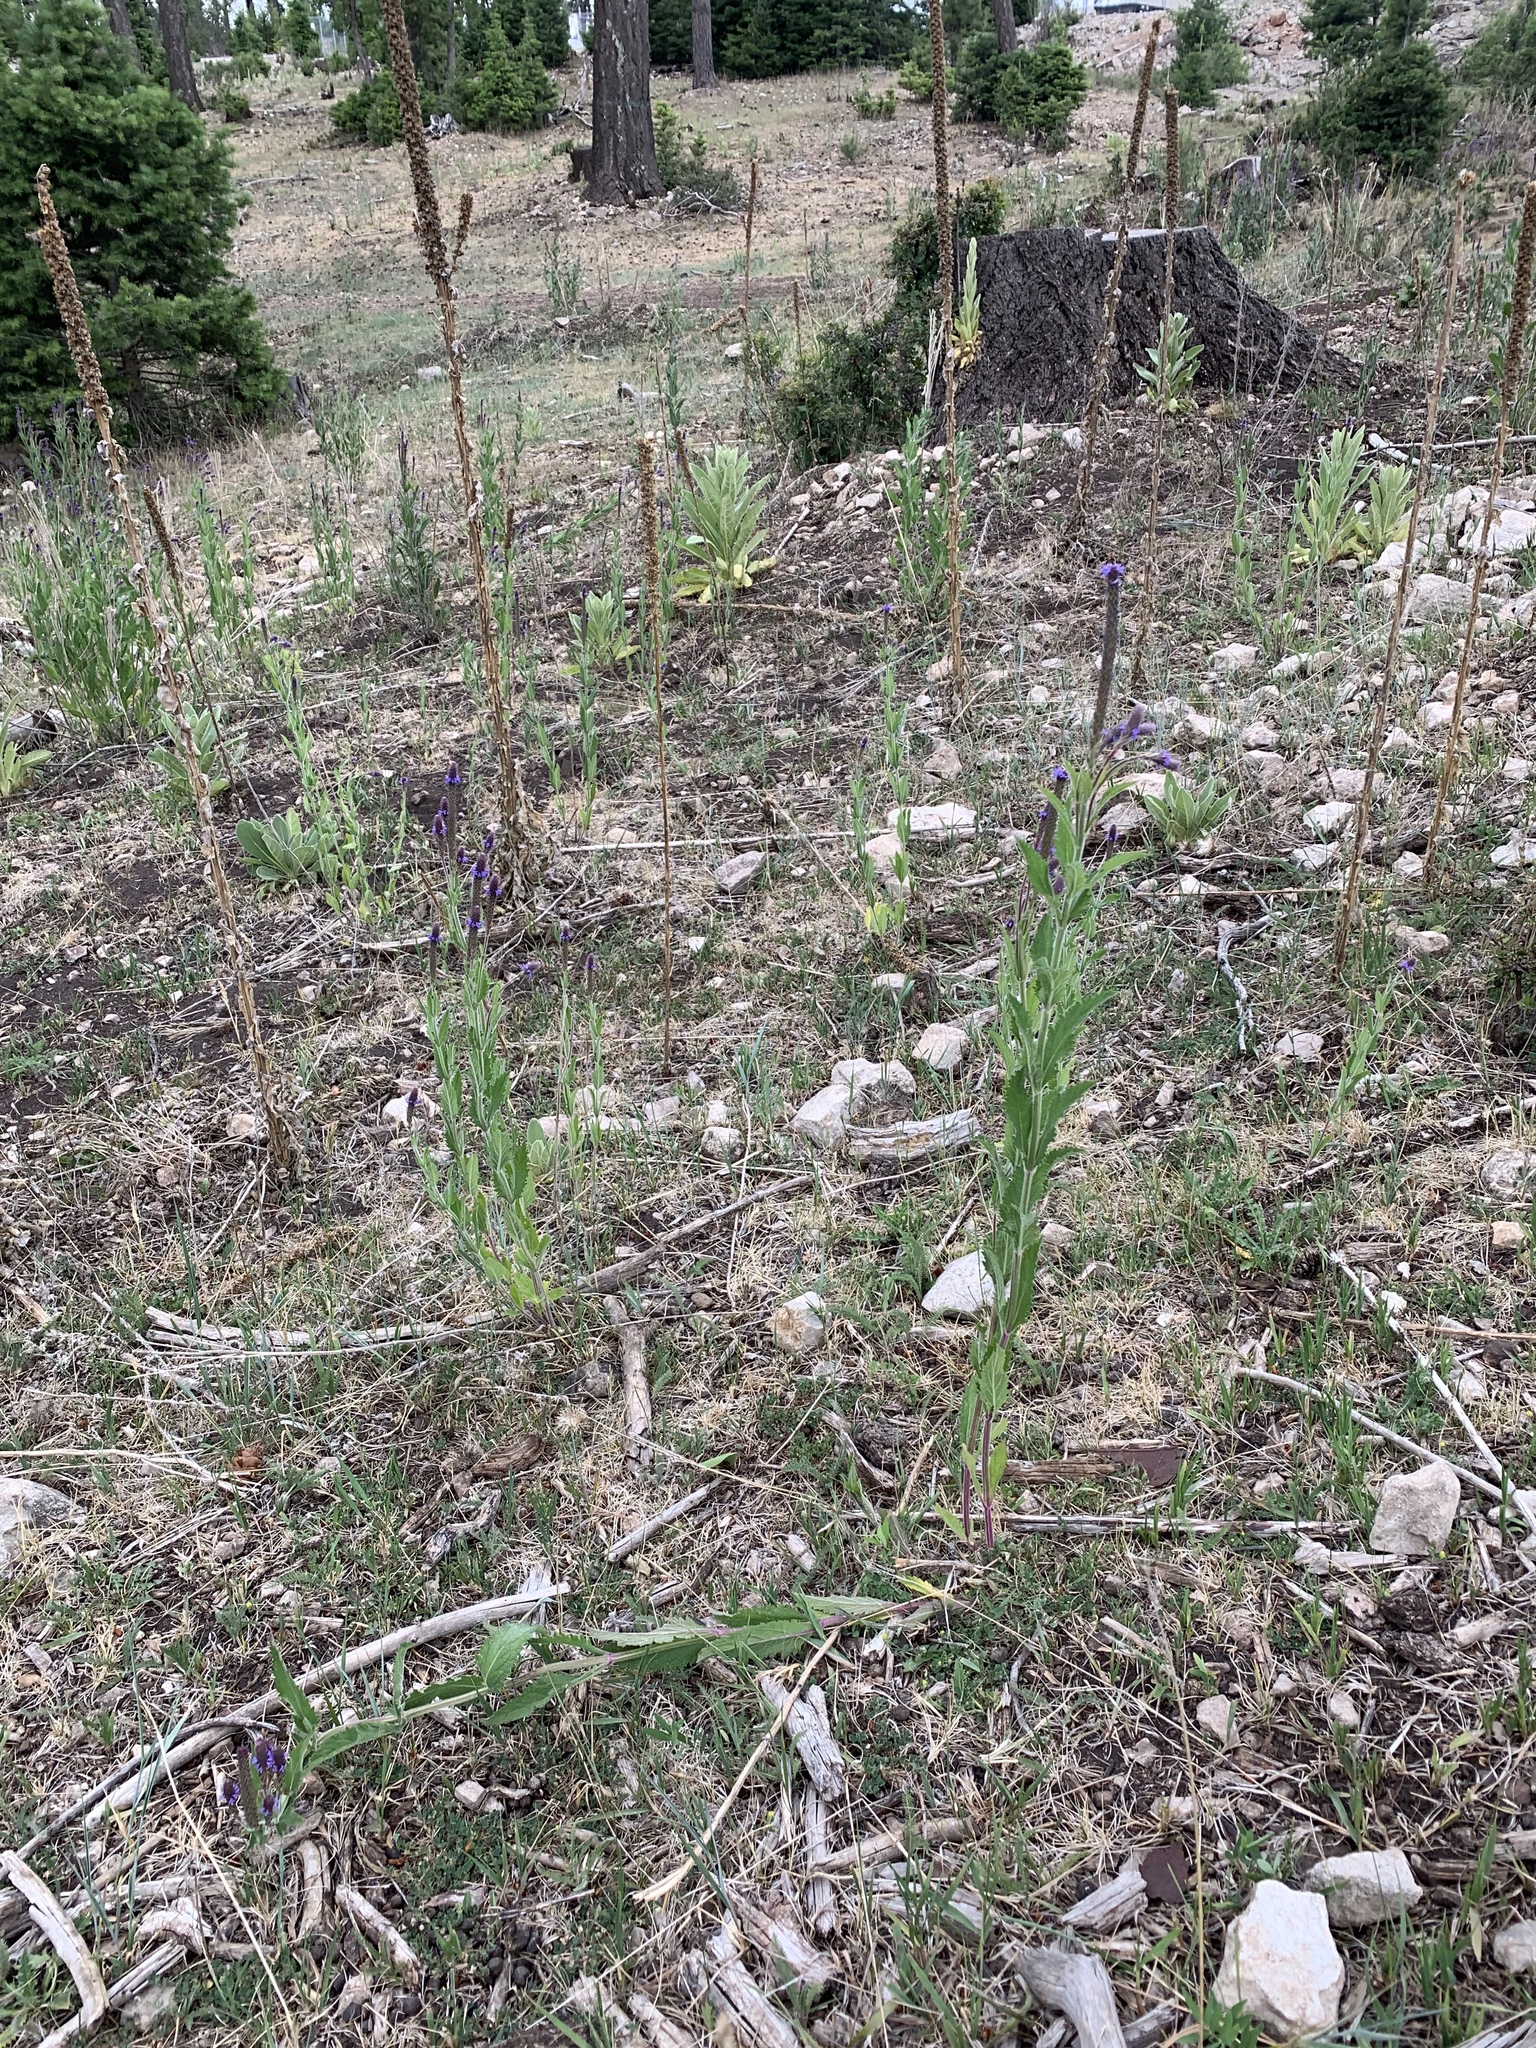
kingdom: Plantae
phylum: Tracheophyta
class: Magnoliopsida
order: Lamiales
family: Verbenaceae
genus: Verbena
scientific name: Verbena macdougalii
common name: New mexico vervain
